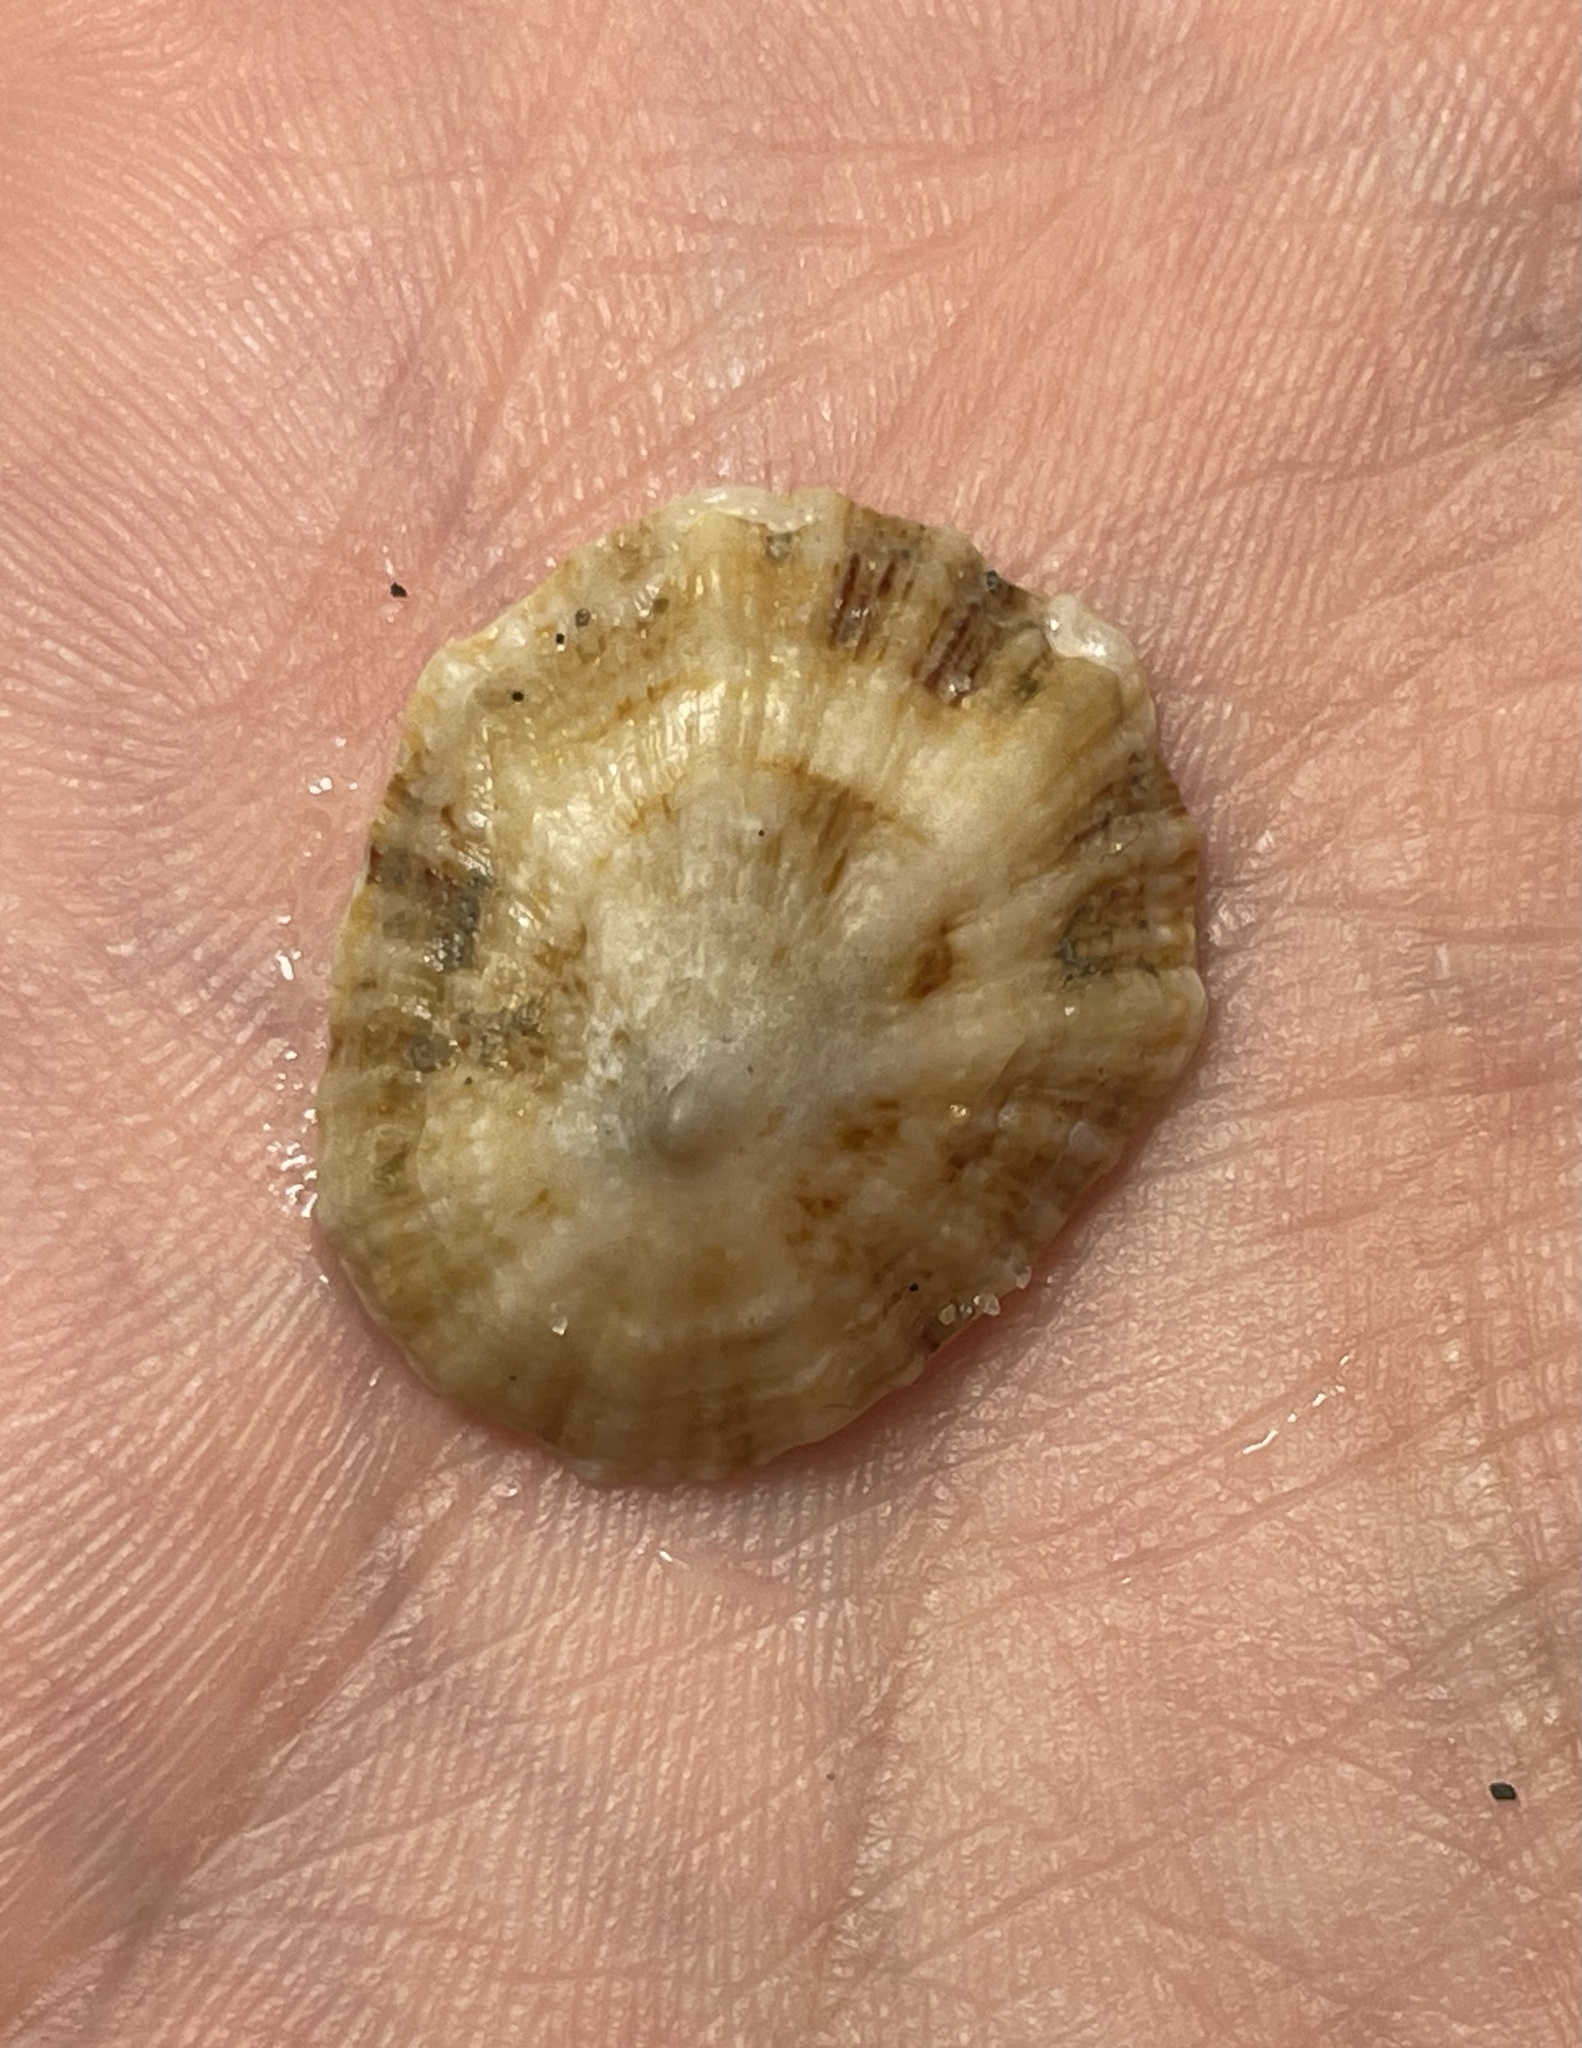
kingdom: Animalia
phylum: Mollusca
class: Gastropoda
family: Patellidae
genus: Patella
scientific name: Patella caerulea
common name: Mediterranean limpet
